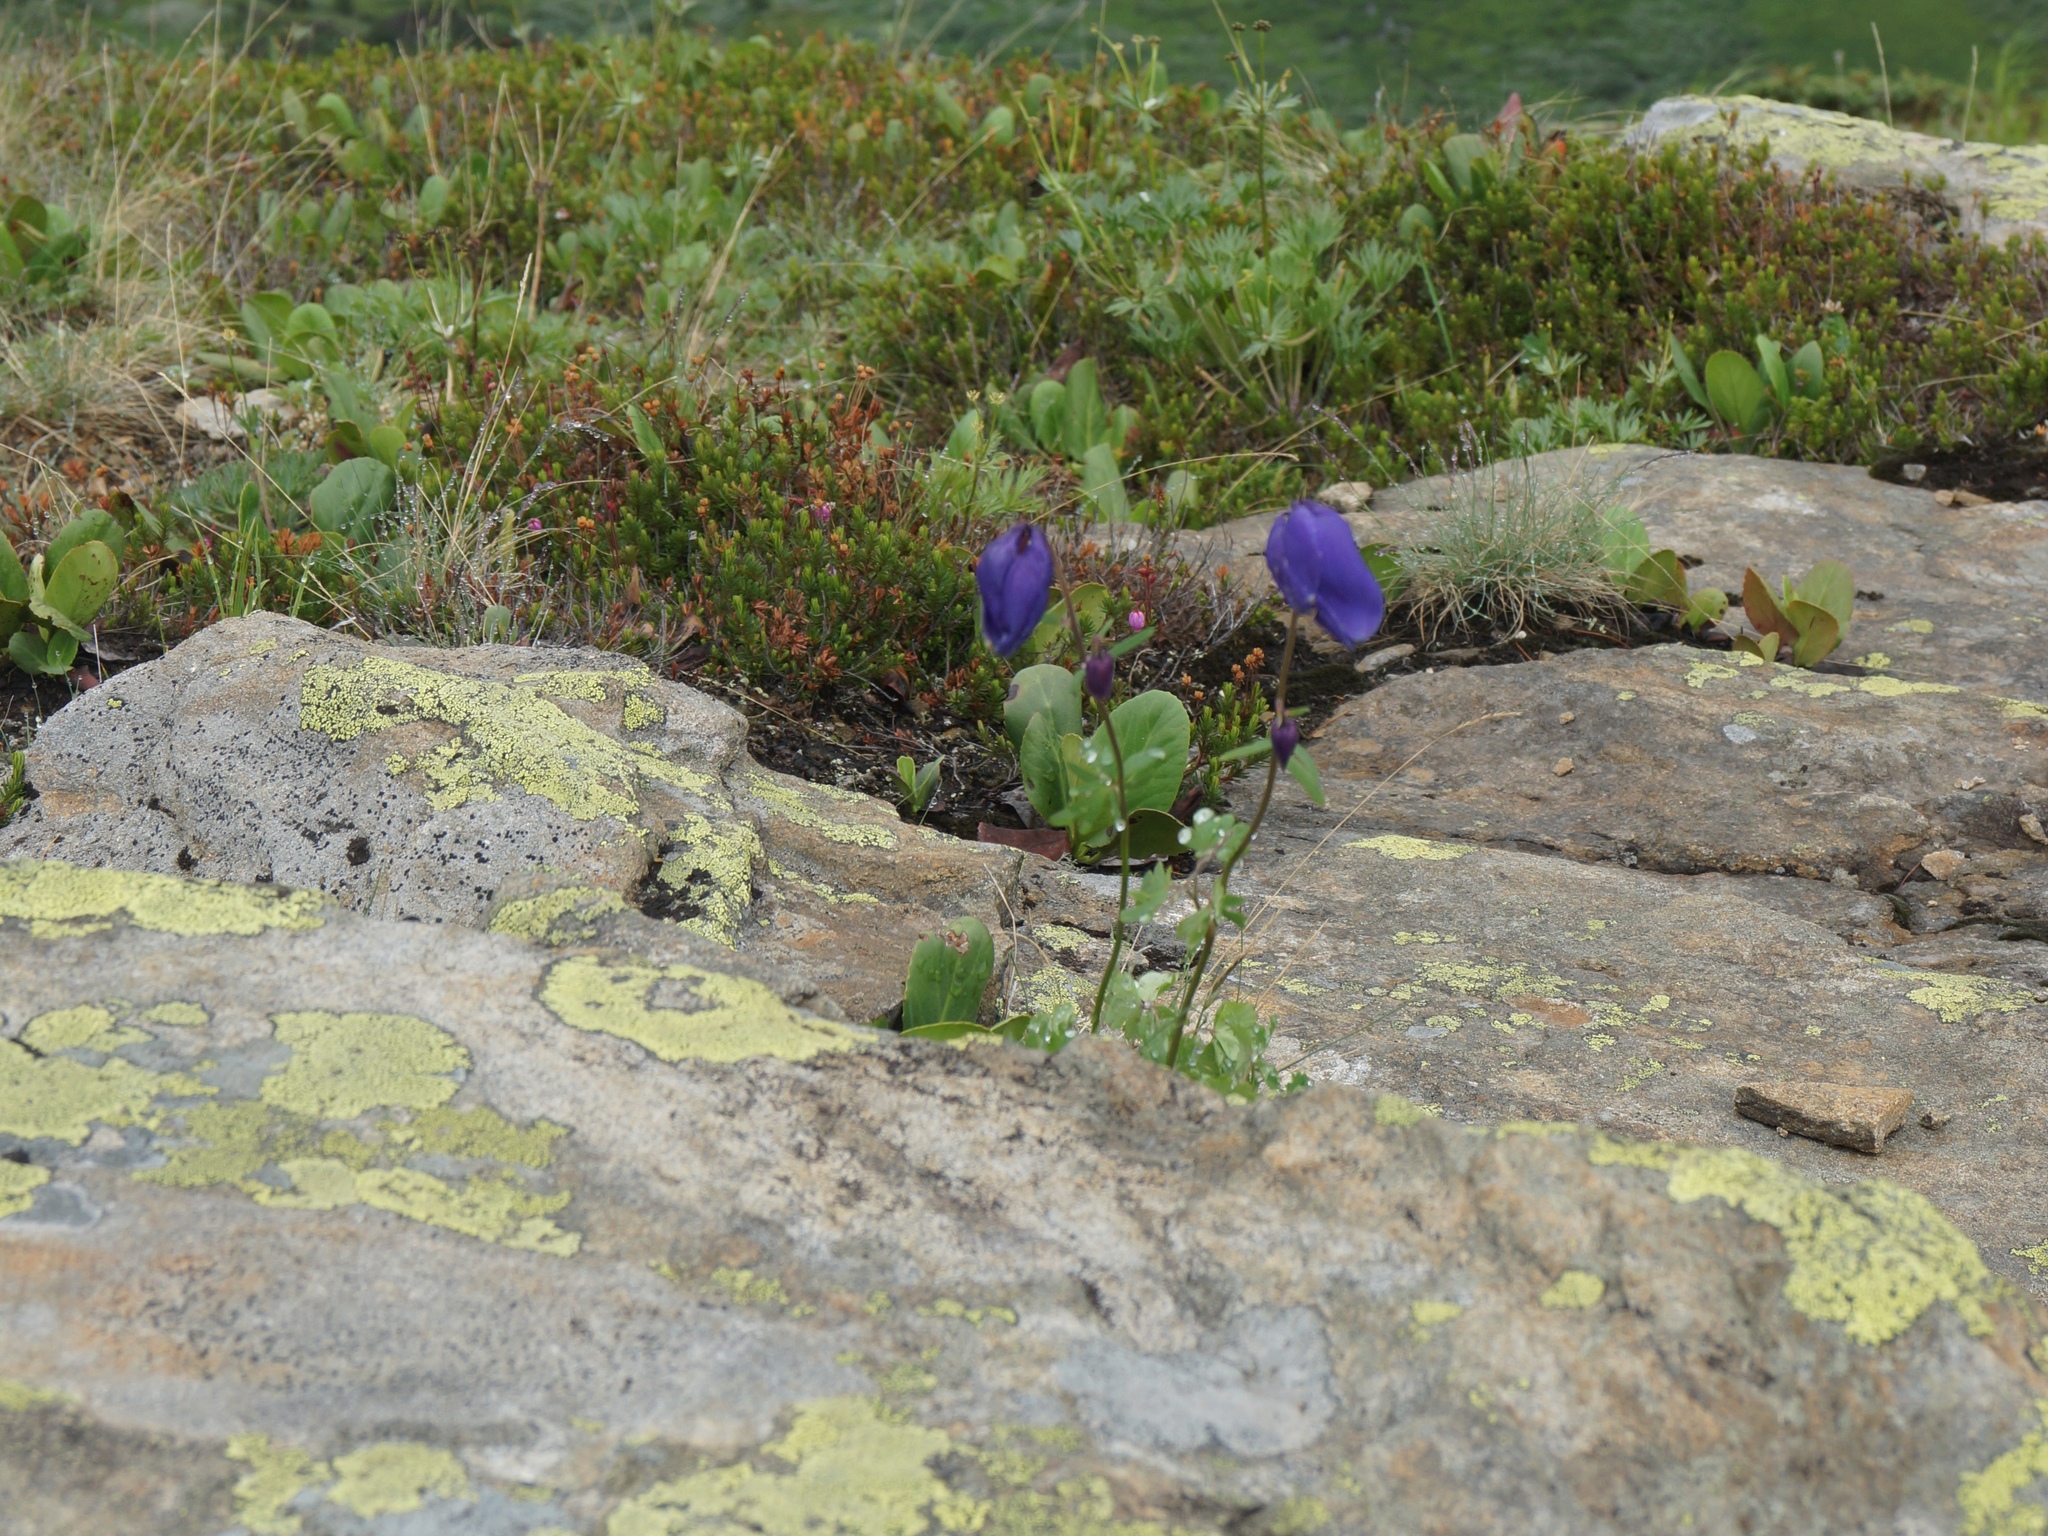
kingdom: Plantae
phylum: Tracheophyta
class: Magnoliopsida
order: Ranunculales
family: Ranunculaceae
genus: Aquilegia
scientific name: Aquilegia glandulosa
